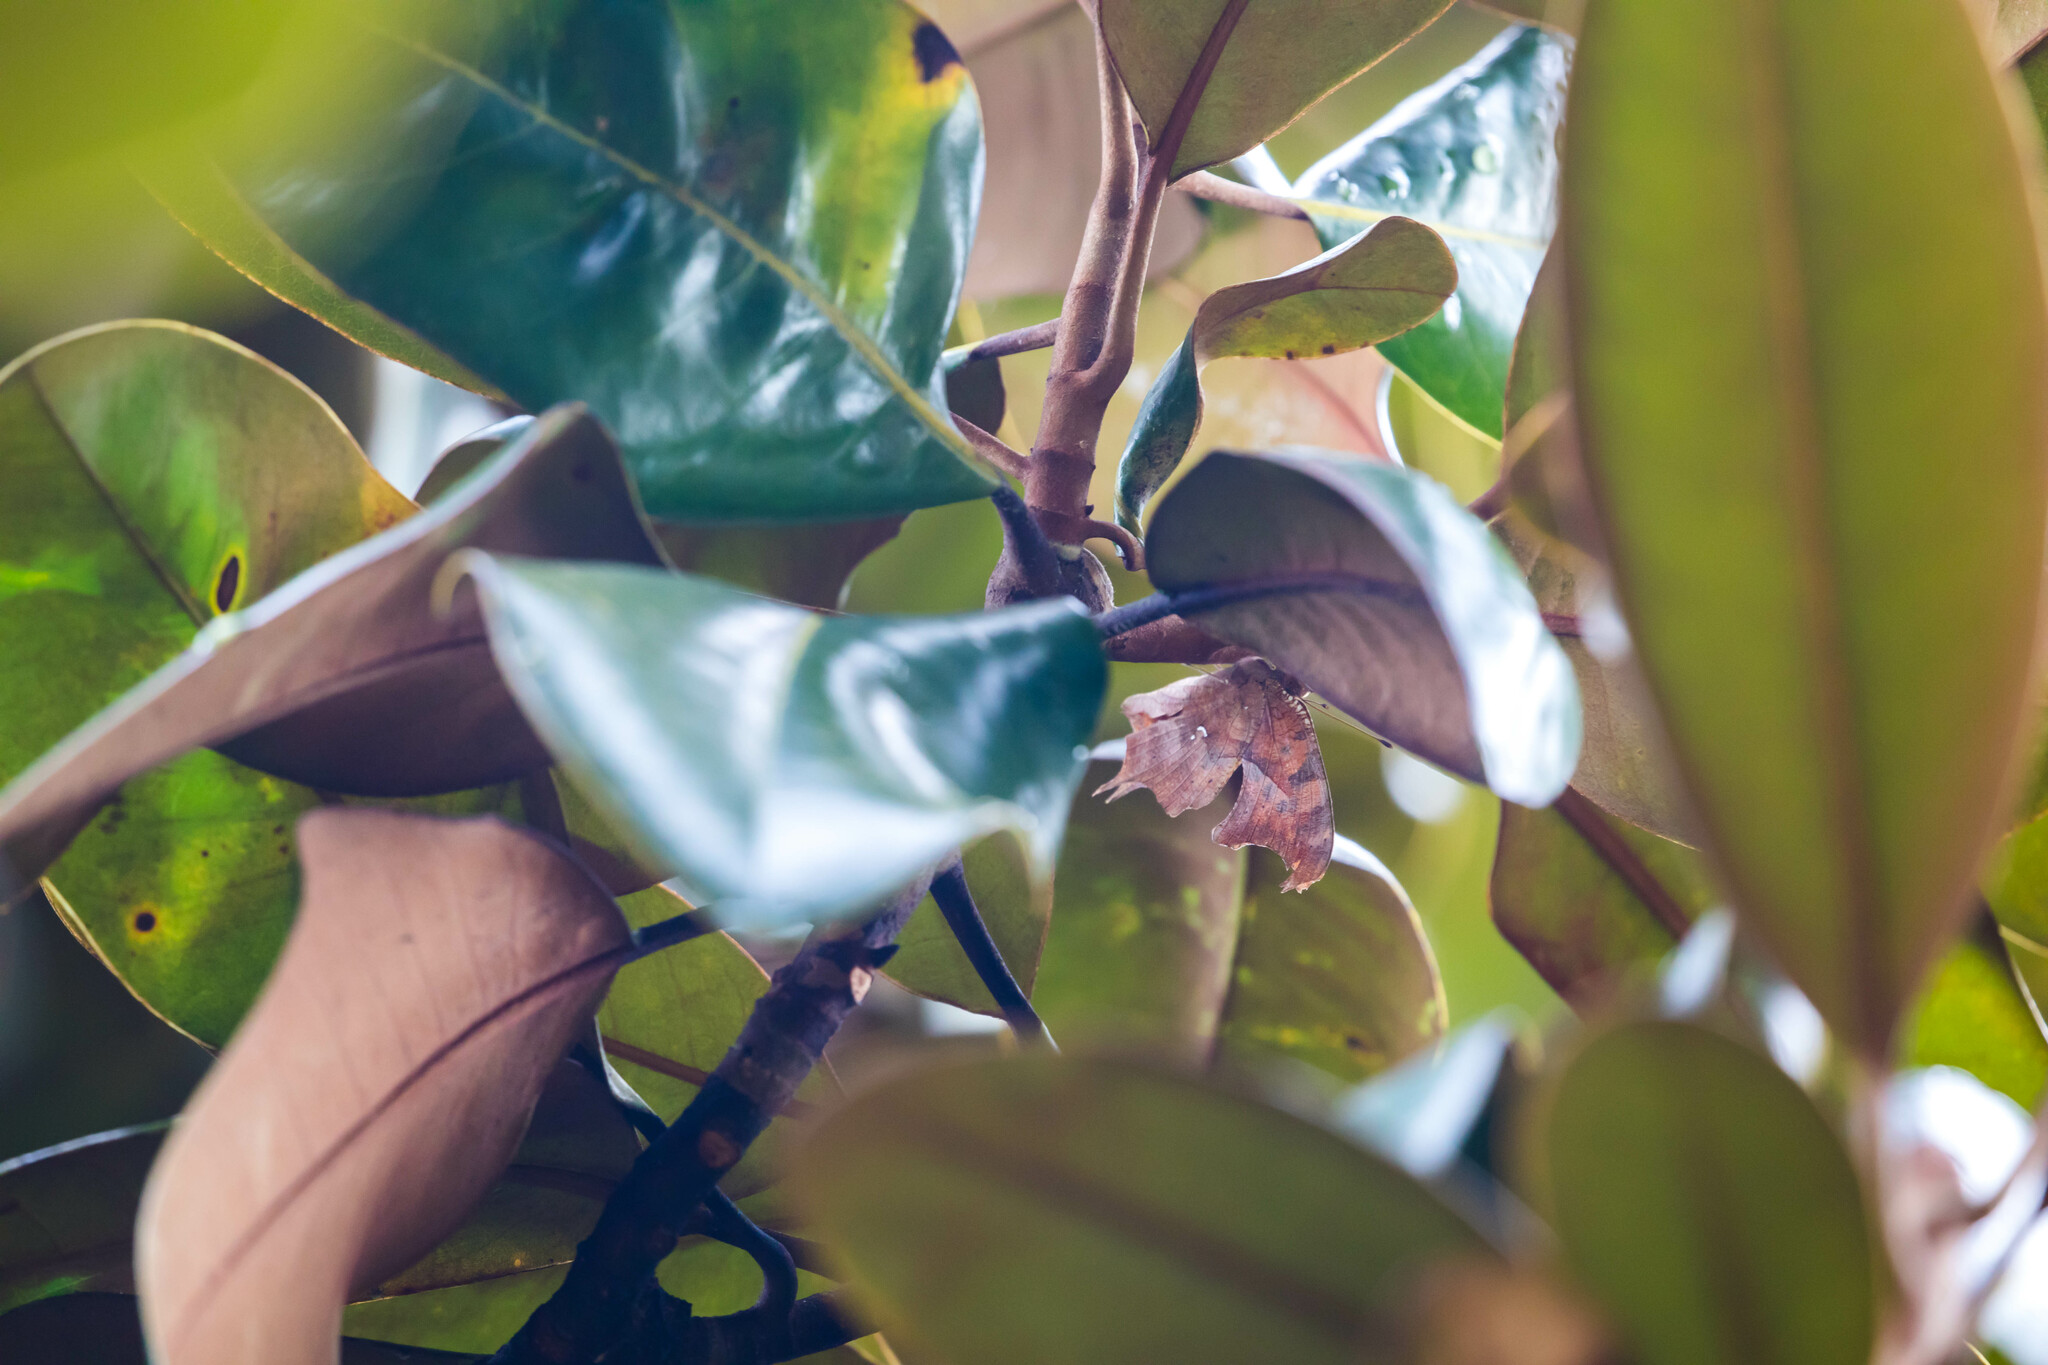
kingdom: Animalia
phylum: Arthropoda
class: Insecta
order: Lepidoptera
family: Nymphalidae
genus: Polygonia
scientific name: Polygonia interrogationis
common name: Question mark
